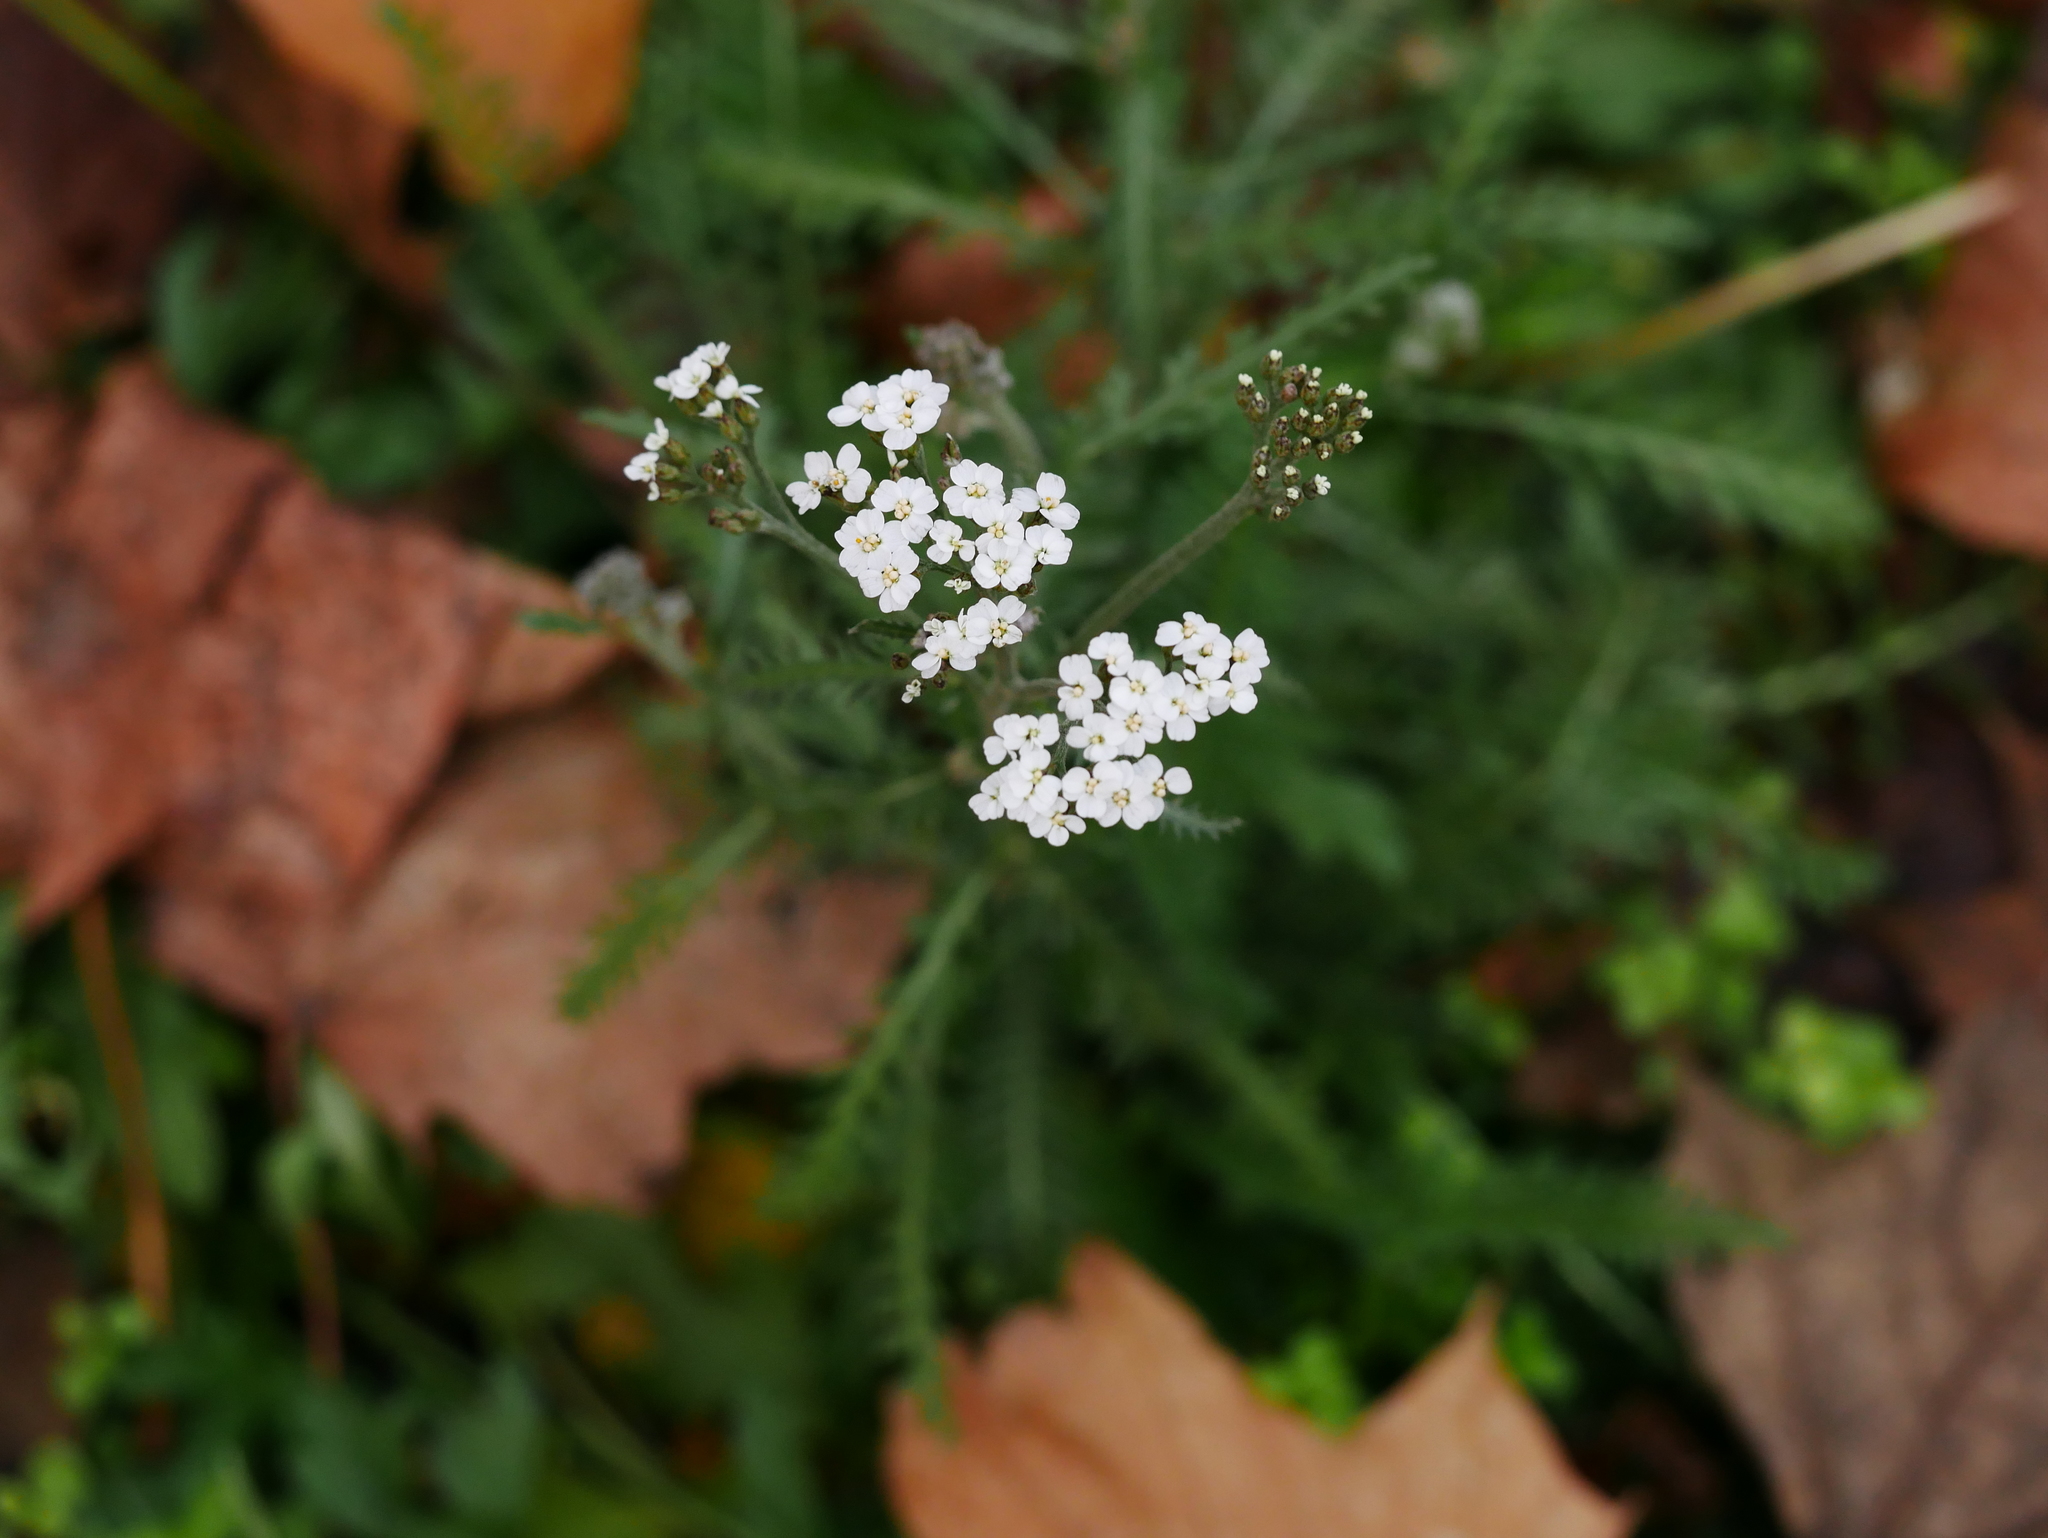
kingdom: Plantae
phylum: Tracheophyta
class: Magnoliopsida
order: Asterales
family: Asteraceae
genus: Achillea
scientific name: Achillea millefolium
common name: Yarrow
